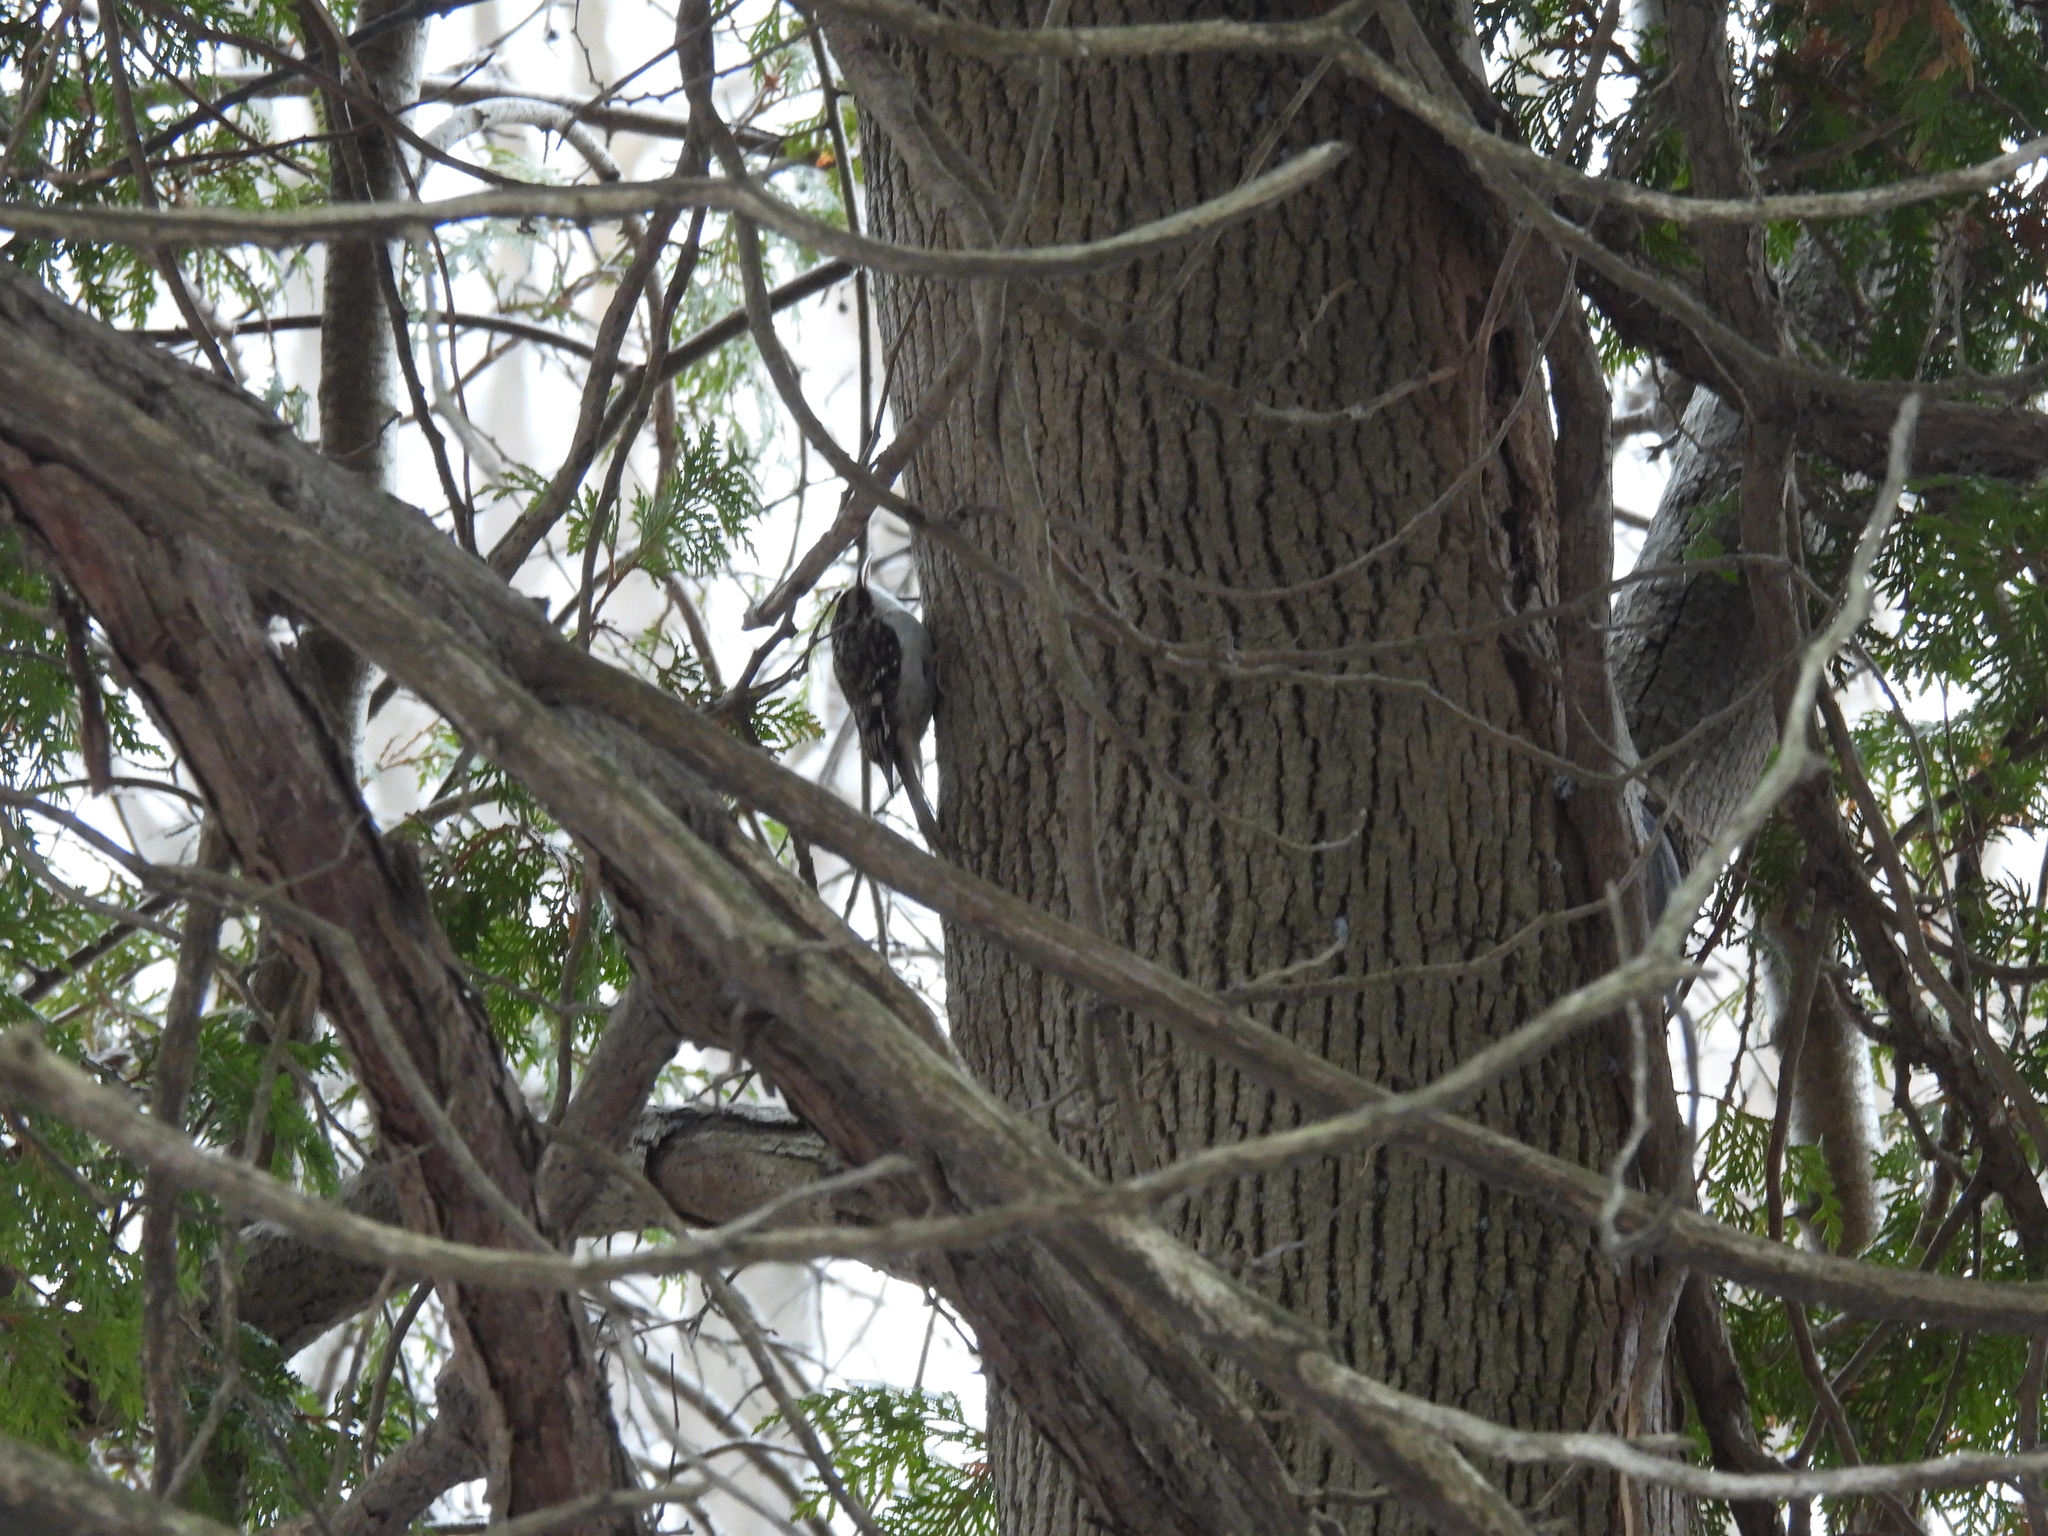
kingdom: Animalia
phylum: Chordata
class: Aves
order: Passeriformes
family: Certhiidae
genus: Certhia
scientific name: Certhia americana
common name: Brown creeper
